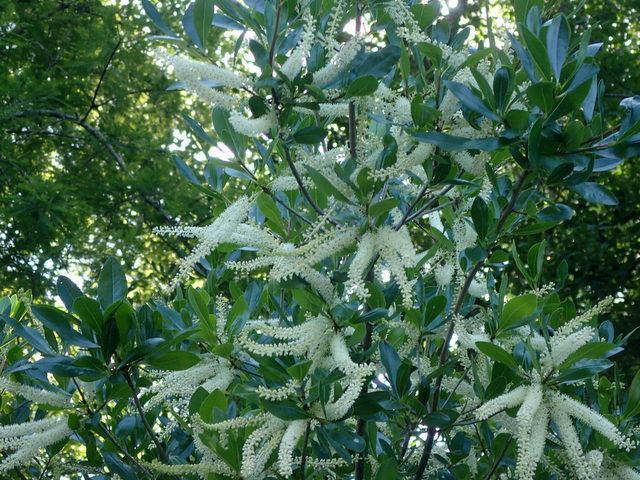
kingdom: Plantae
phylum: Tracheophyta
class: Magnoliopsida
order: Ericales
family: Cyrillaceae
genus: Cyrilla
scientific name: Cyrilla racemiflora
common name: Black titi
